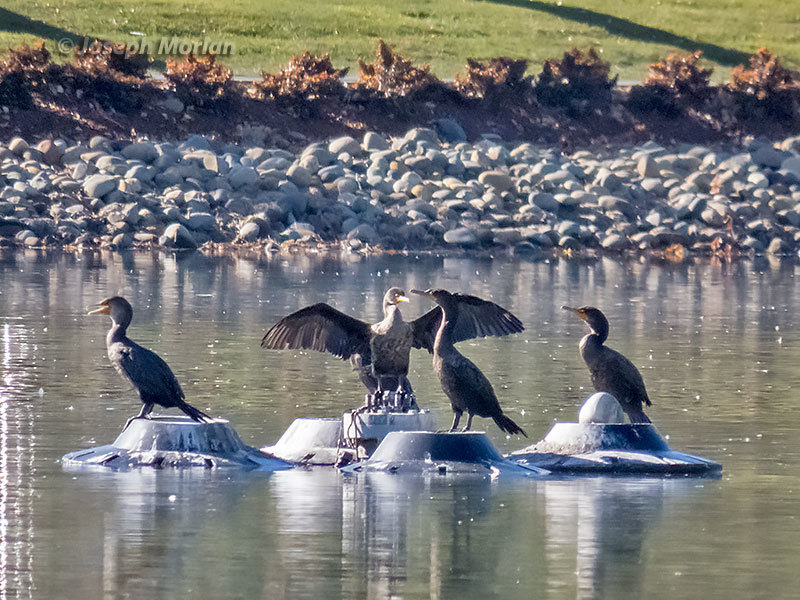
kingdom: Animalia
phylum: Chordata
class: Aves
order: Suliformes
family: Phalacrocoracidae
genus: Phalacrocorax
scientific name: Phalacrocorax auritus
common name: Double-crested cormorant
